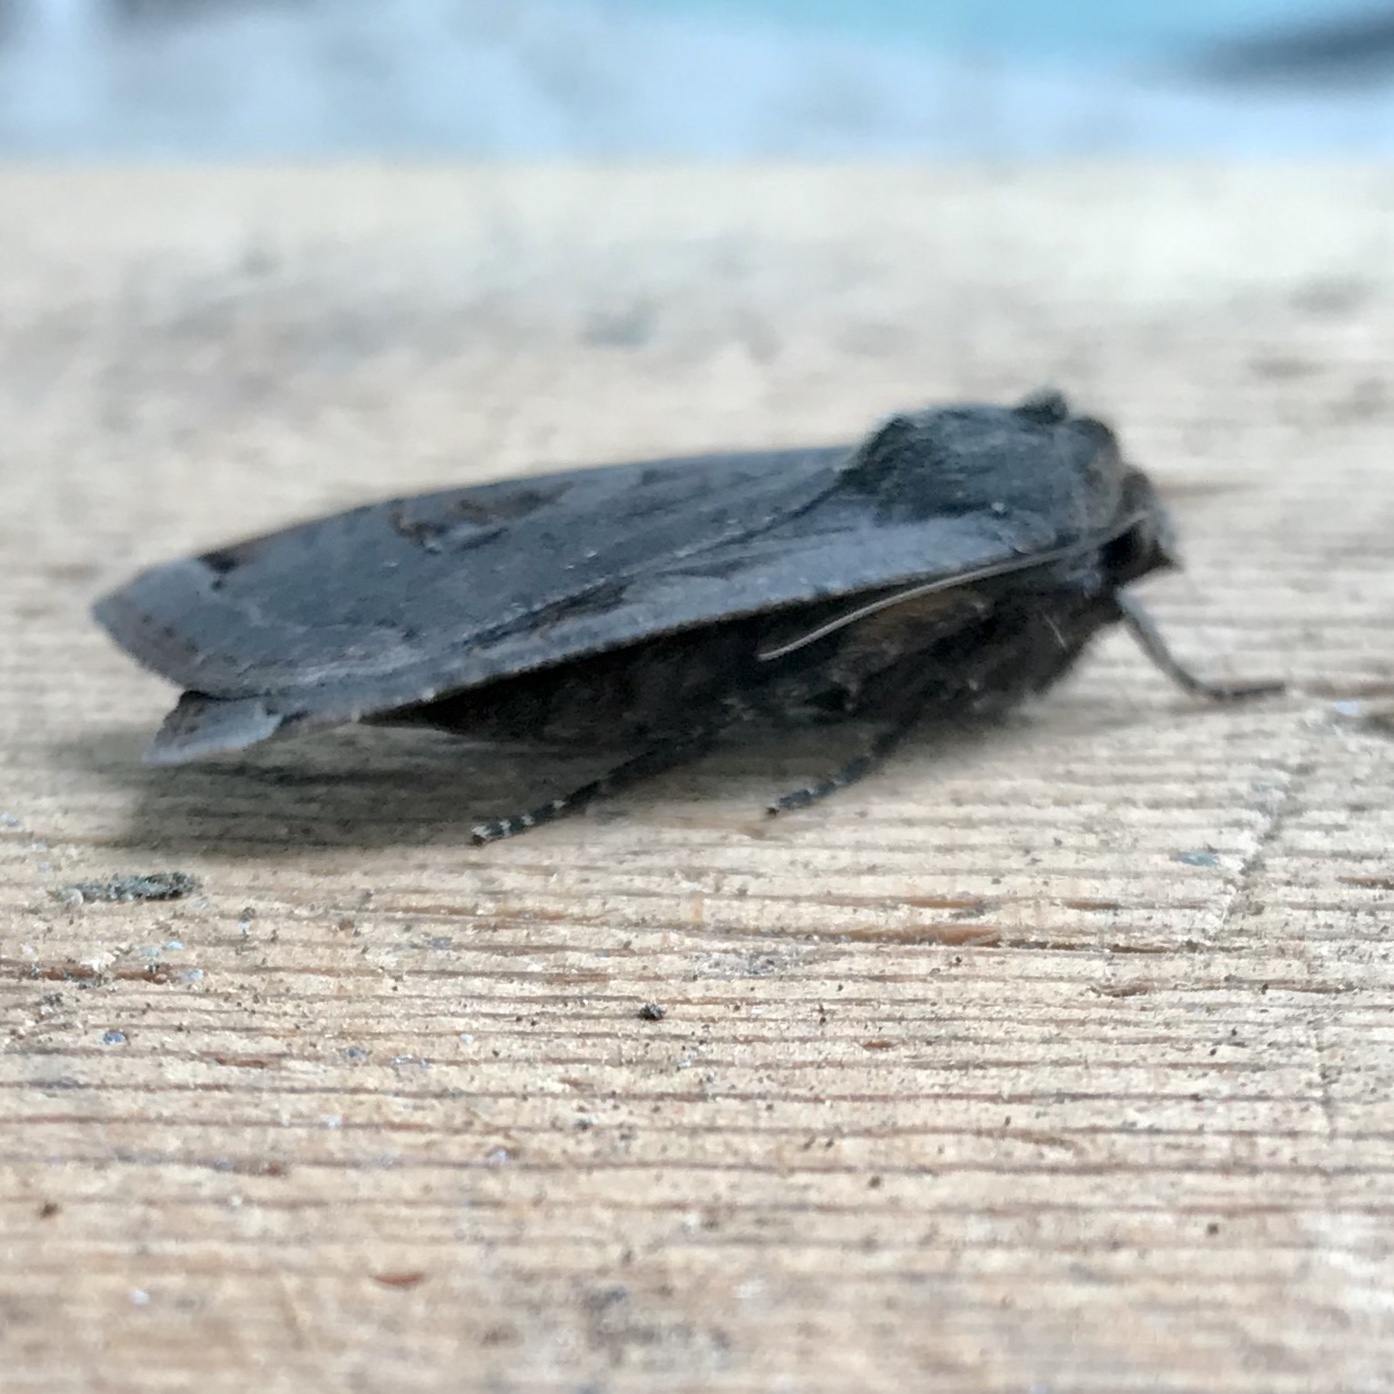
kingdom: Animalia
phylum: Arthropoda
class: Insecta
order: Lepidoptera
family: Noctuidae
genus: Noctua
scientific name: Noctua pronuba
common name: Large yellow underwing
